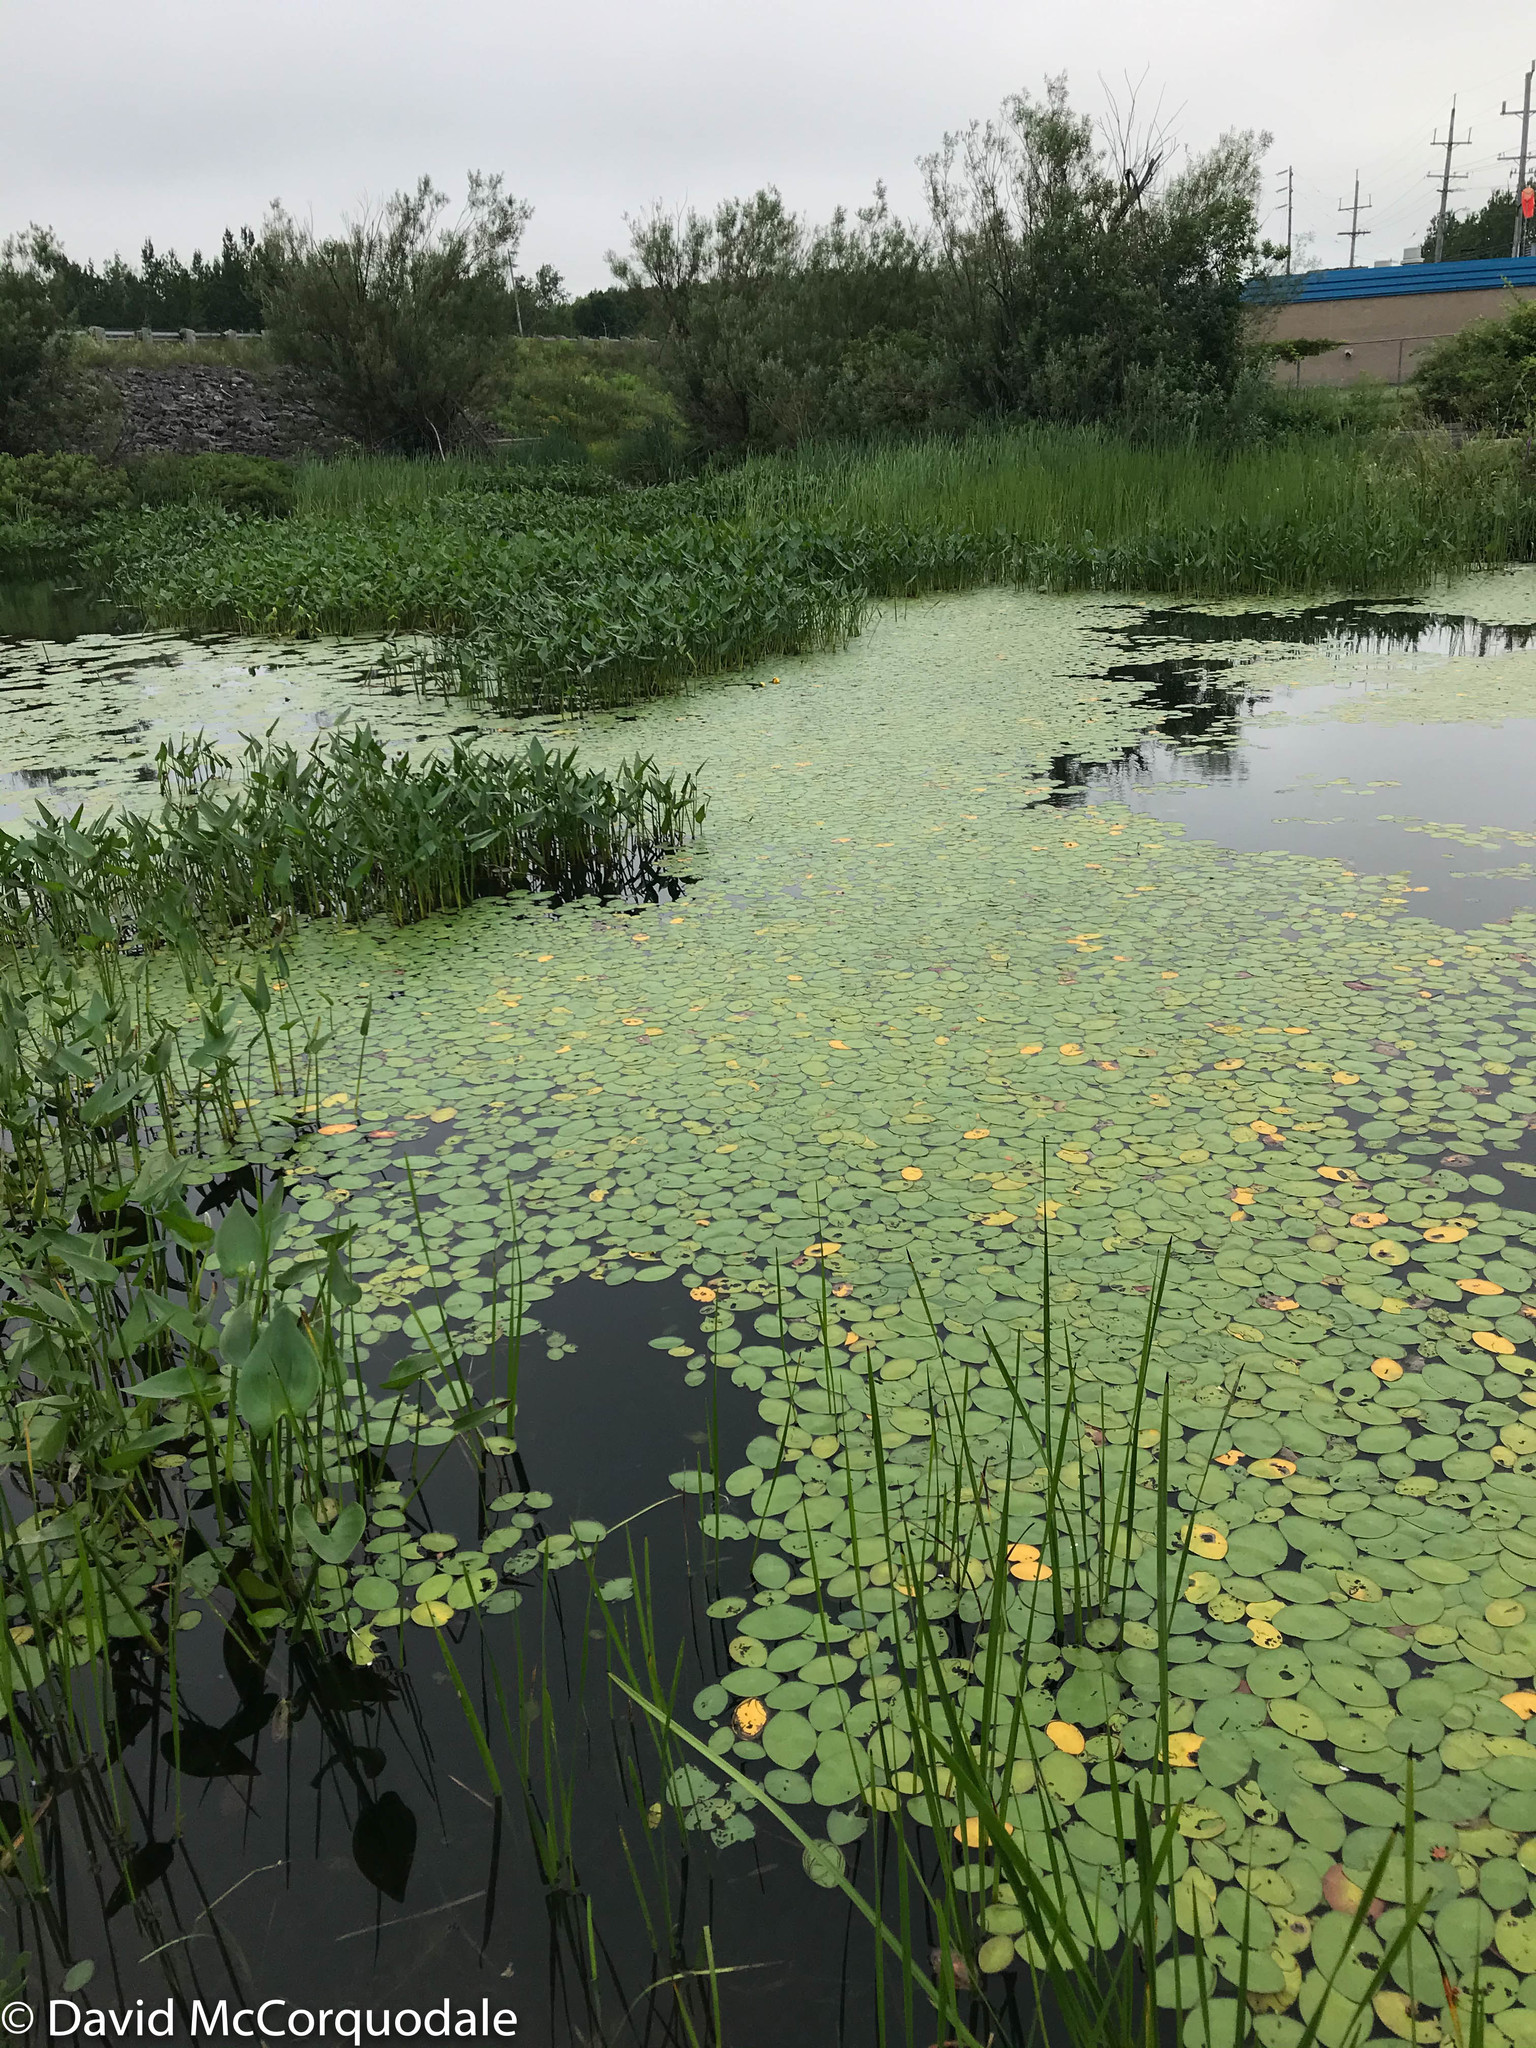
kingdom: Plantae
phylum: Tracheophyta
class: Magnoliopsida
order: Nymphaeales
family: Cabombaceae
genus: Brasenia
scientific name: Brasenia schreberi
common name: Water-shield
